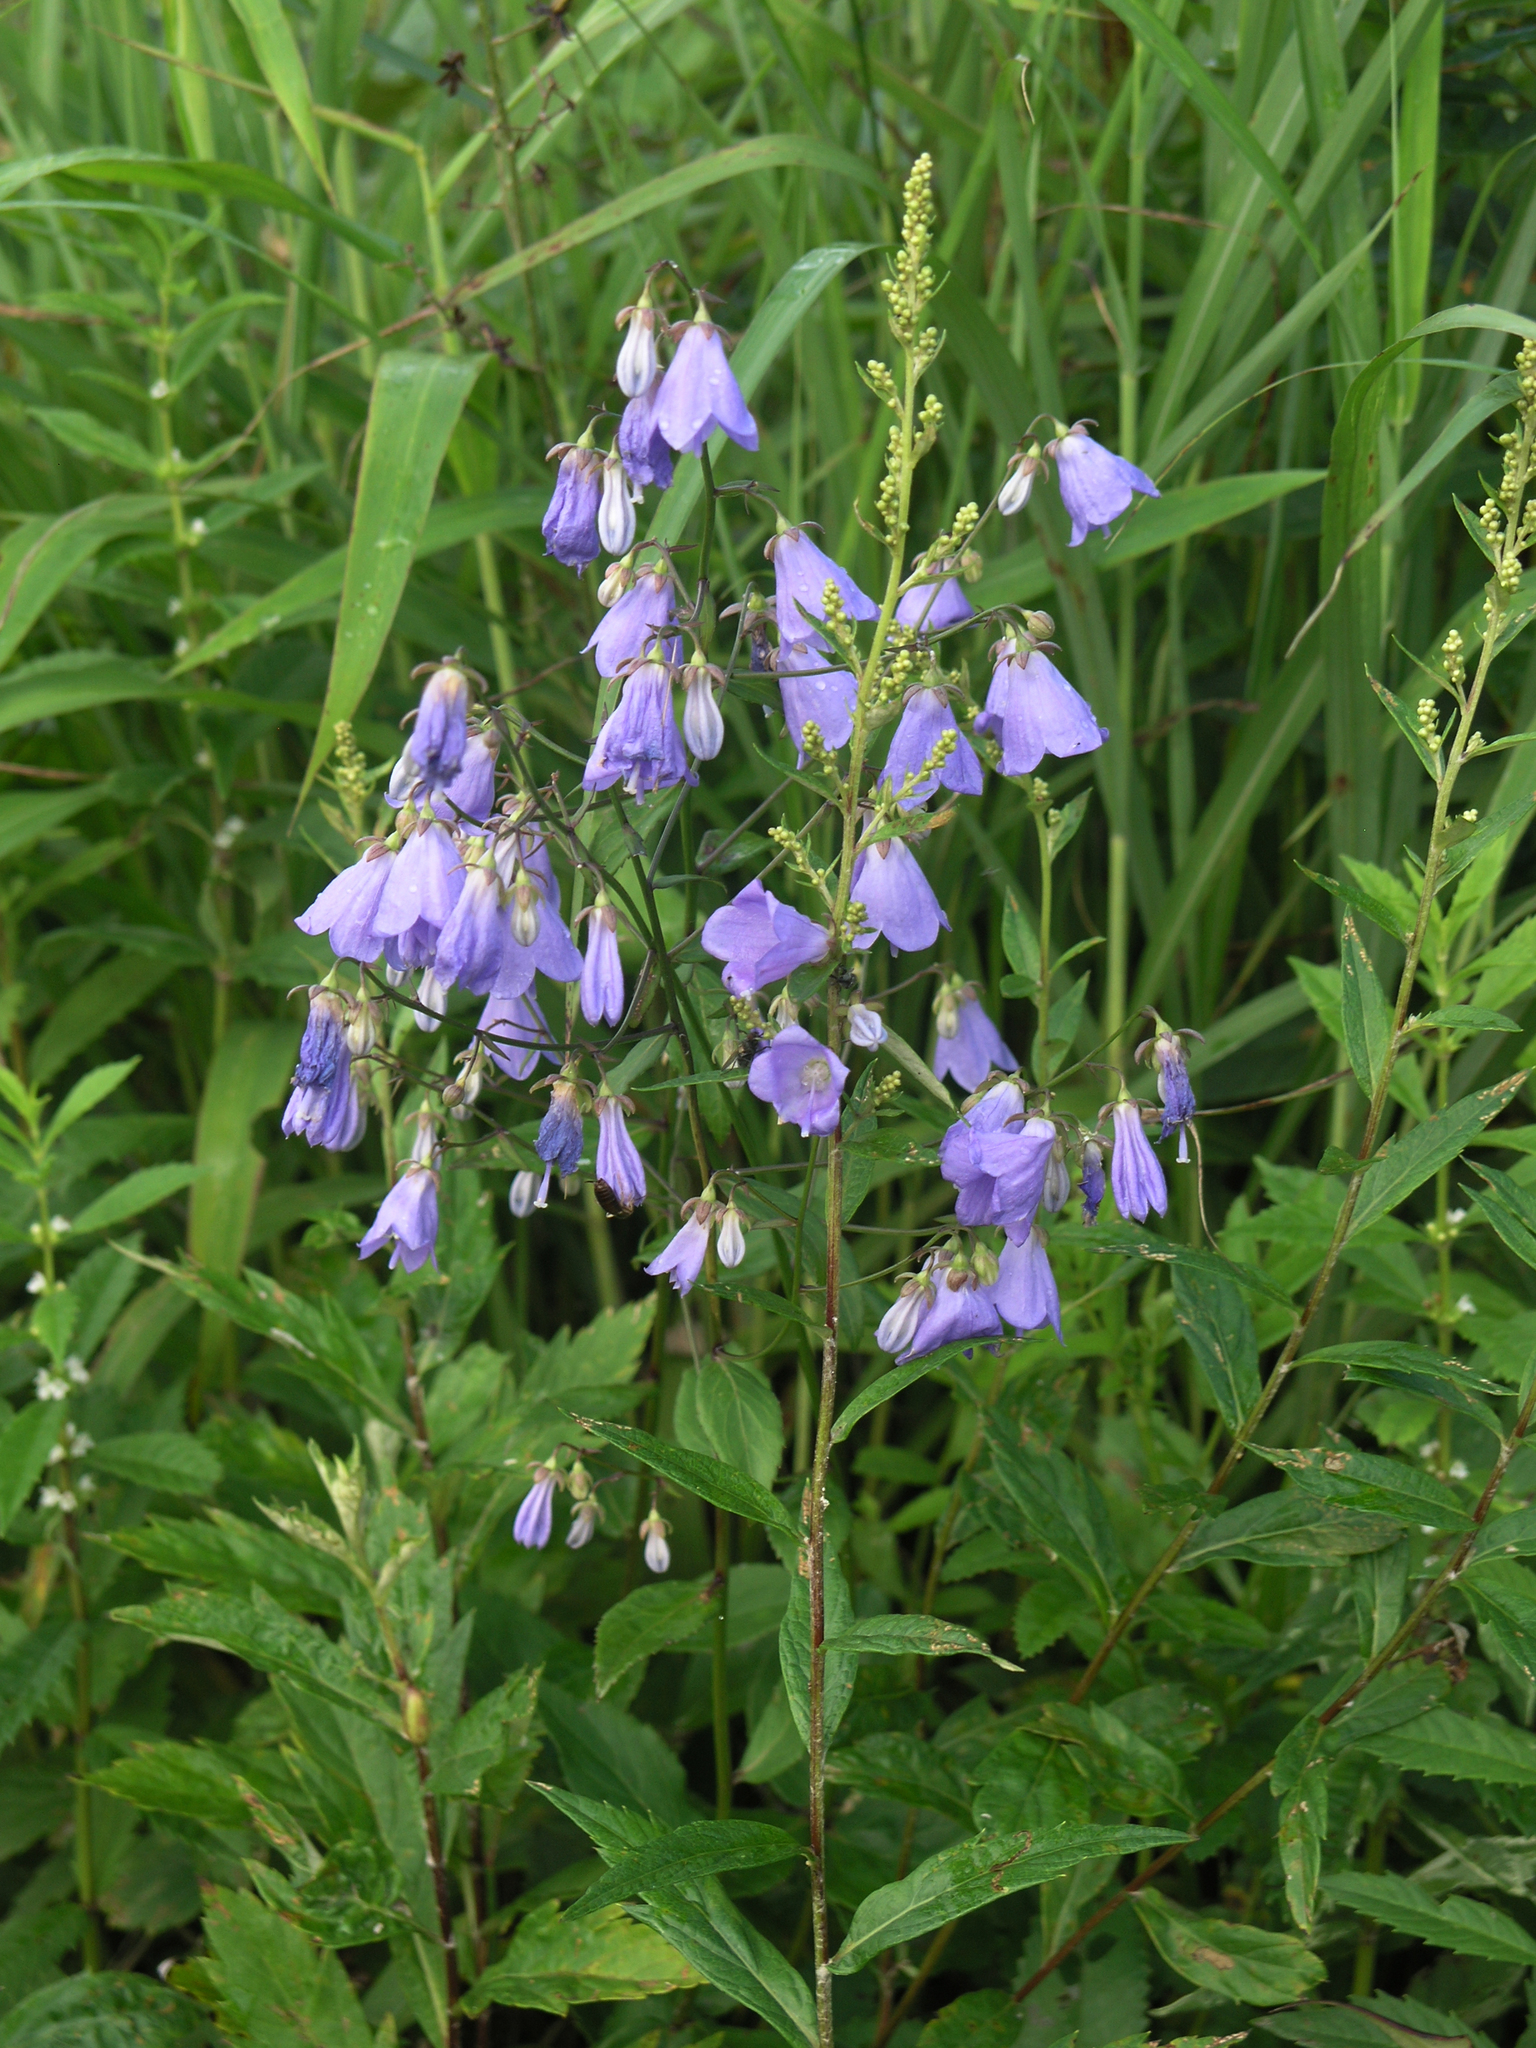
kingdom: Plantae
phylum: Tracheophyta
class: Magnoliopsida
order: Asterales
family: Campanulaceae
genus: Adenophora
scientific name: Adenophora divaricata
